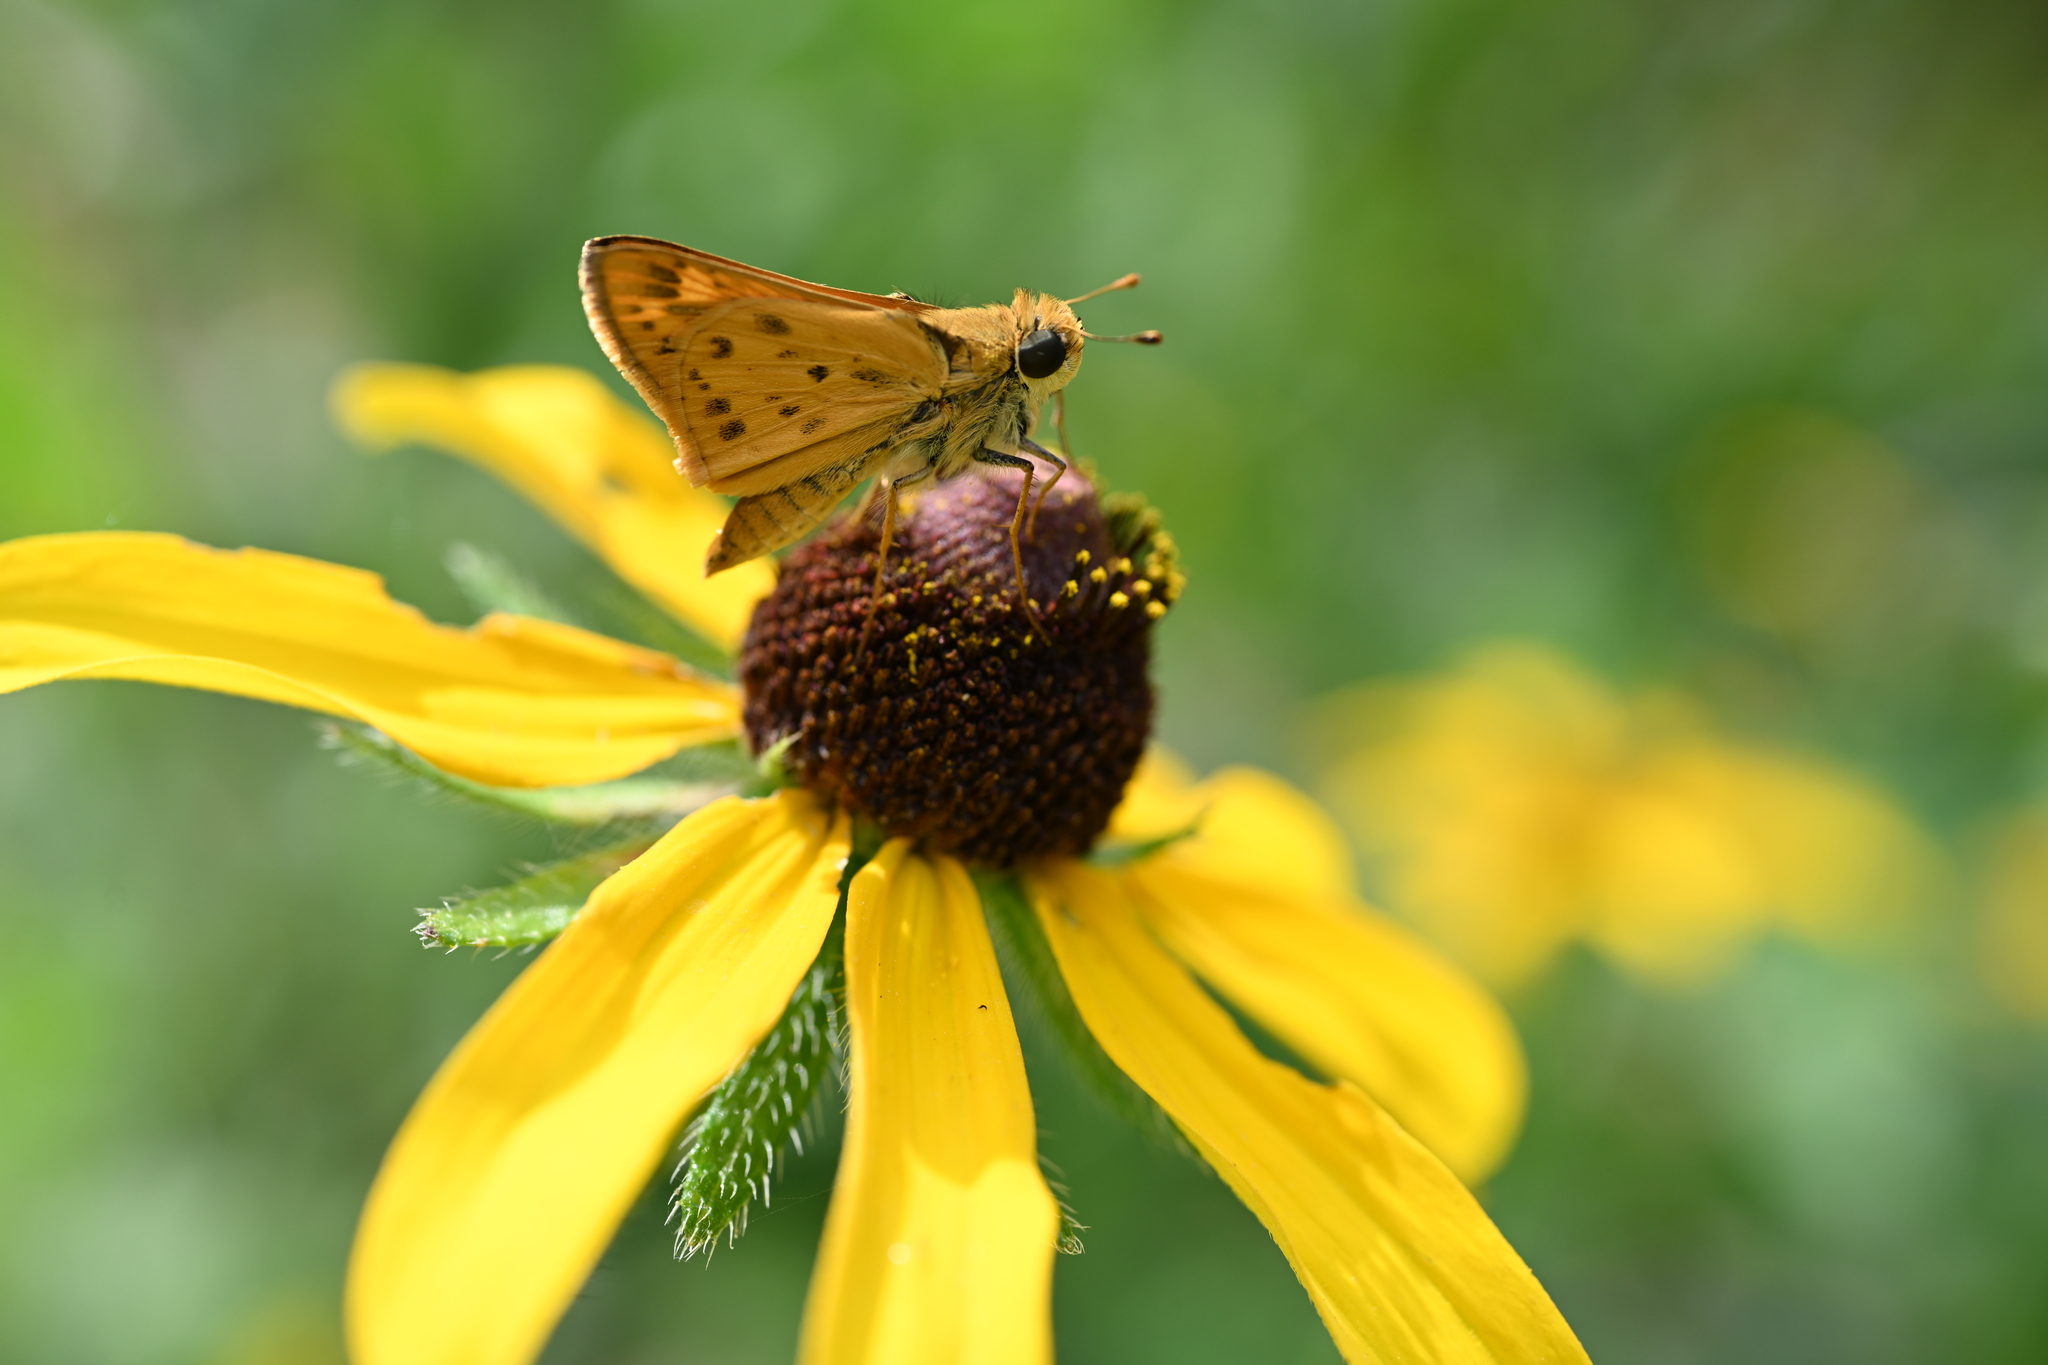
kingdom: Animalia
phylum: Arthropoda
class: Insecta
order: Lepidoptera
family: Hesperiidae
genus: Hylephila
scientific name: Hylephila phyleus
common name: Fiery skipper
